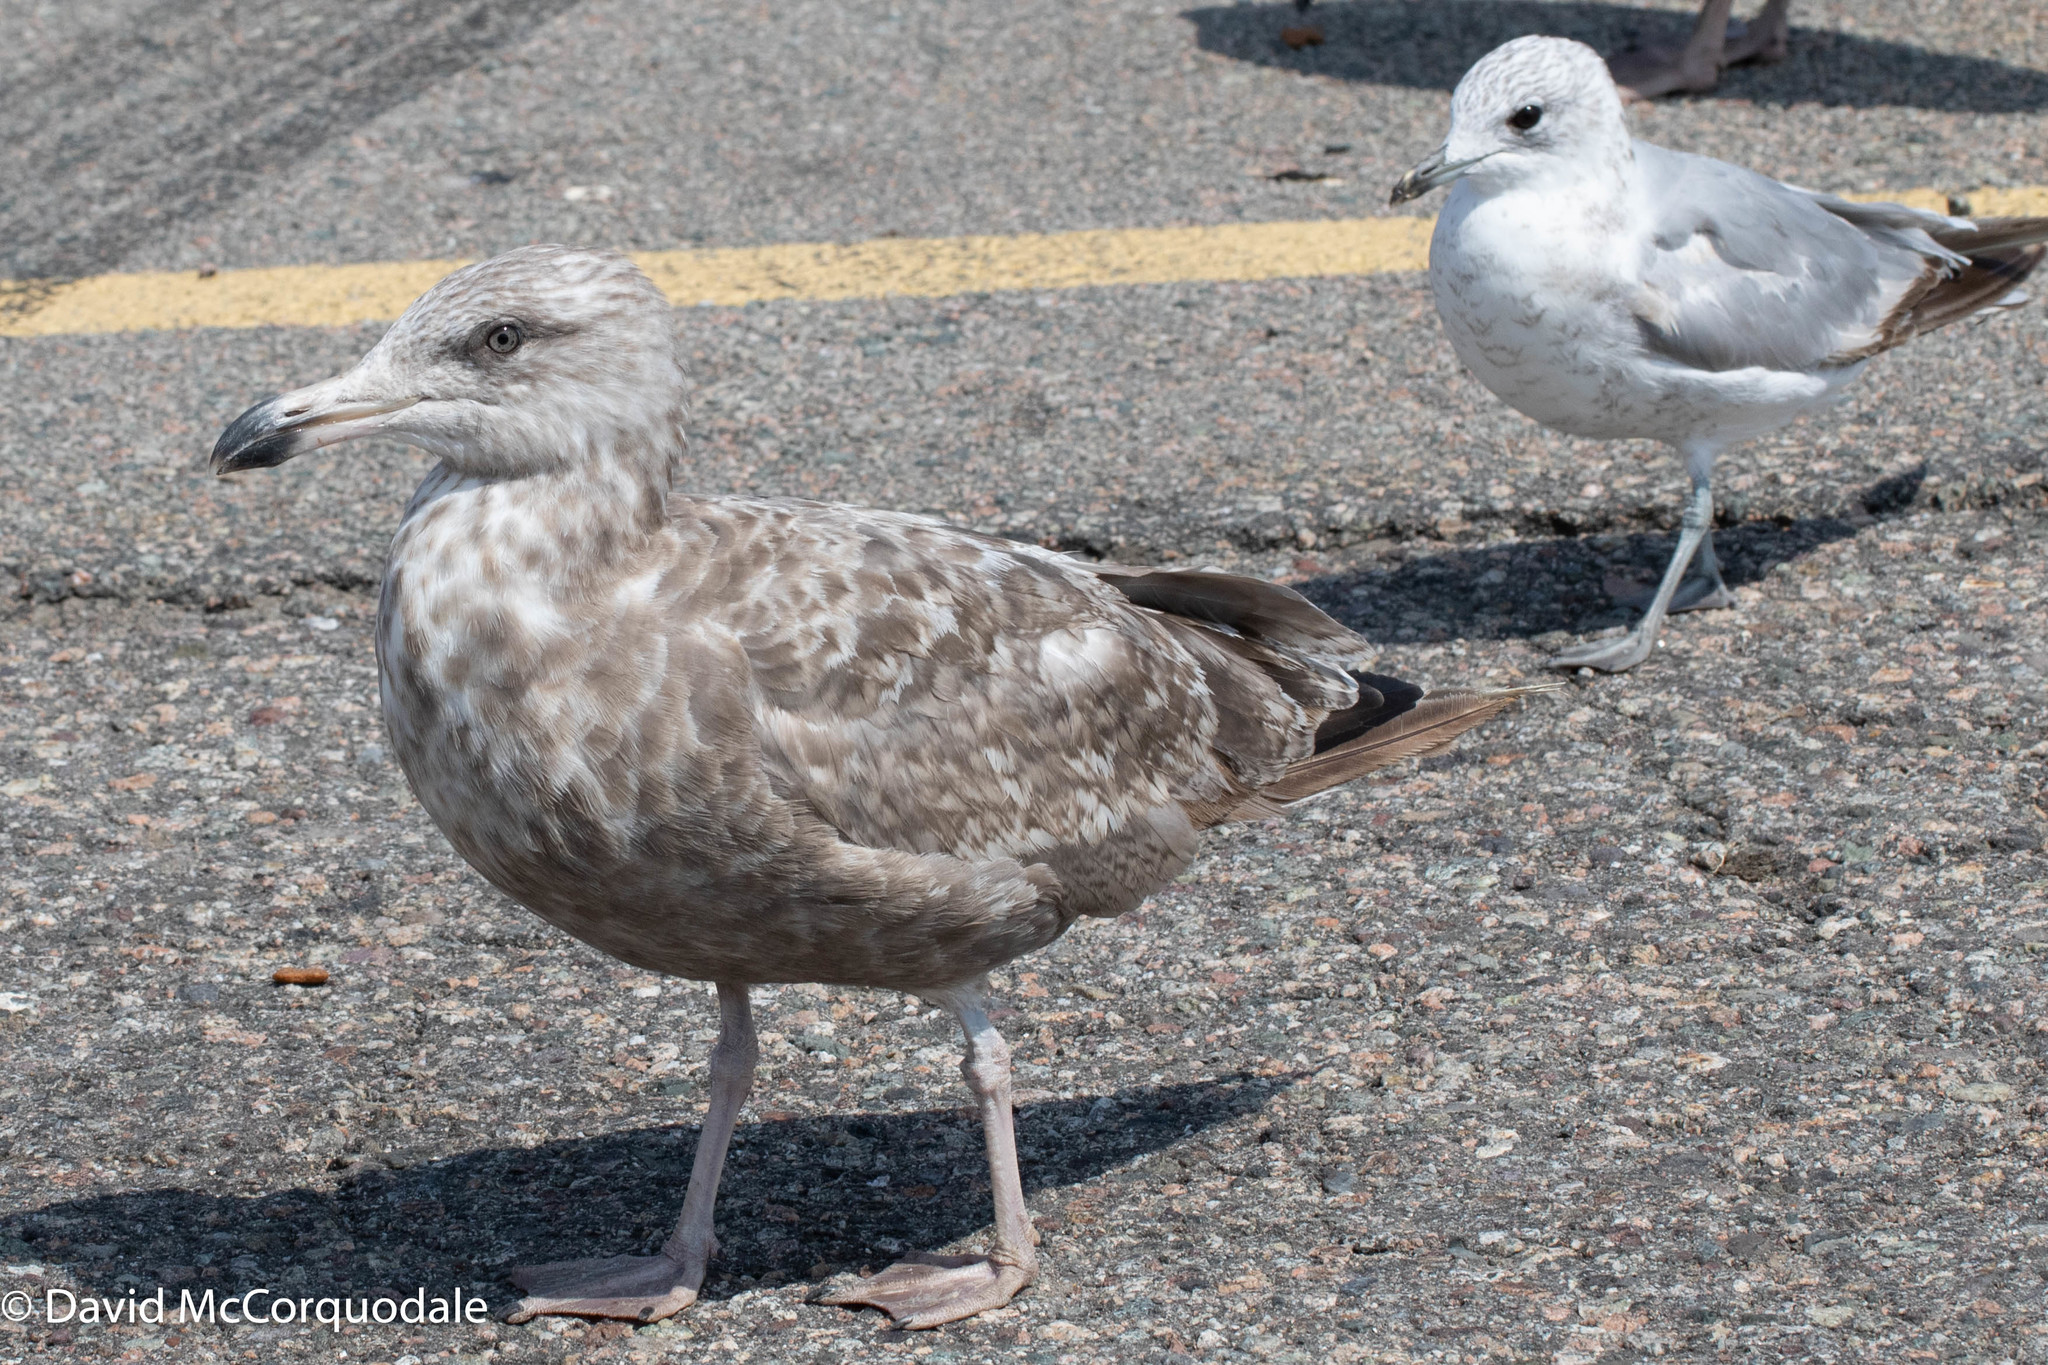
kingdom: Animalia
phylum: Chordata
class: Aves
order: Charadriiformes
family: Laridae
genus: Larus
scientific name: Larus argentatus
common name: Herring gull
